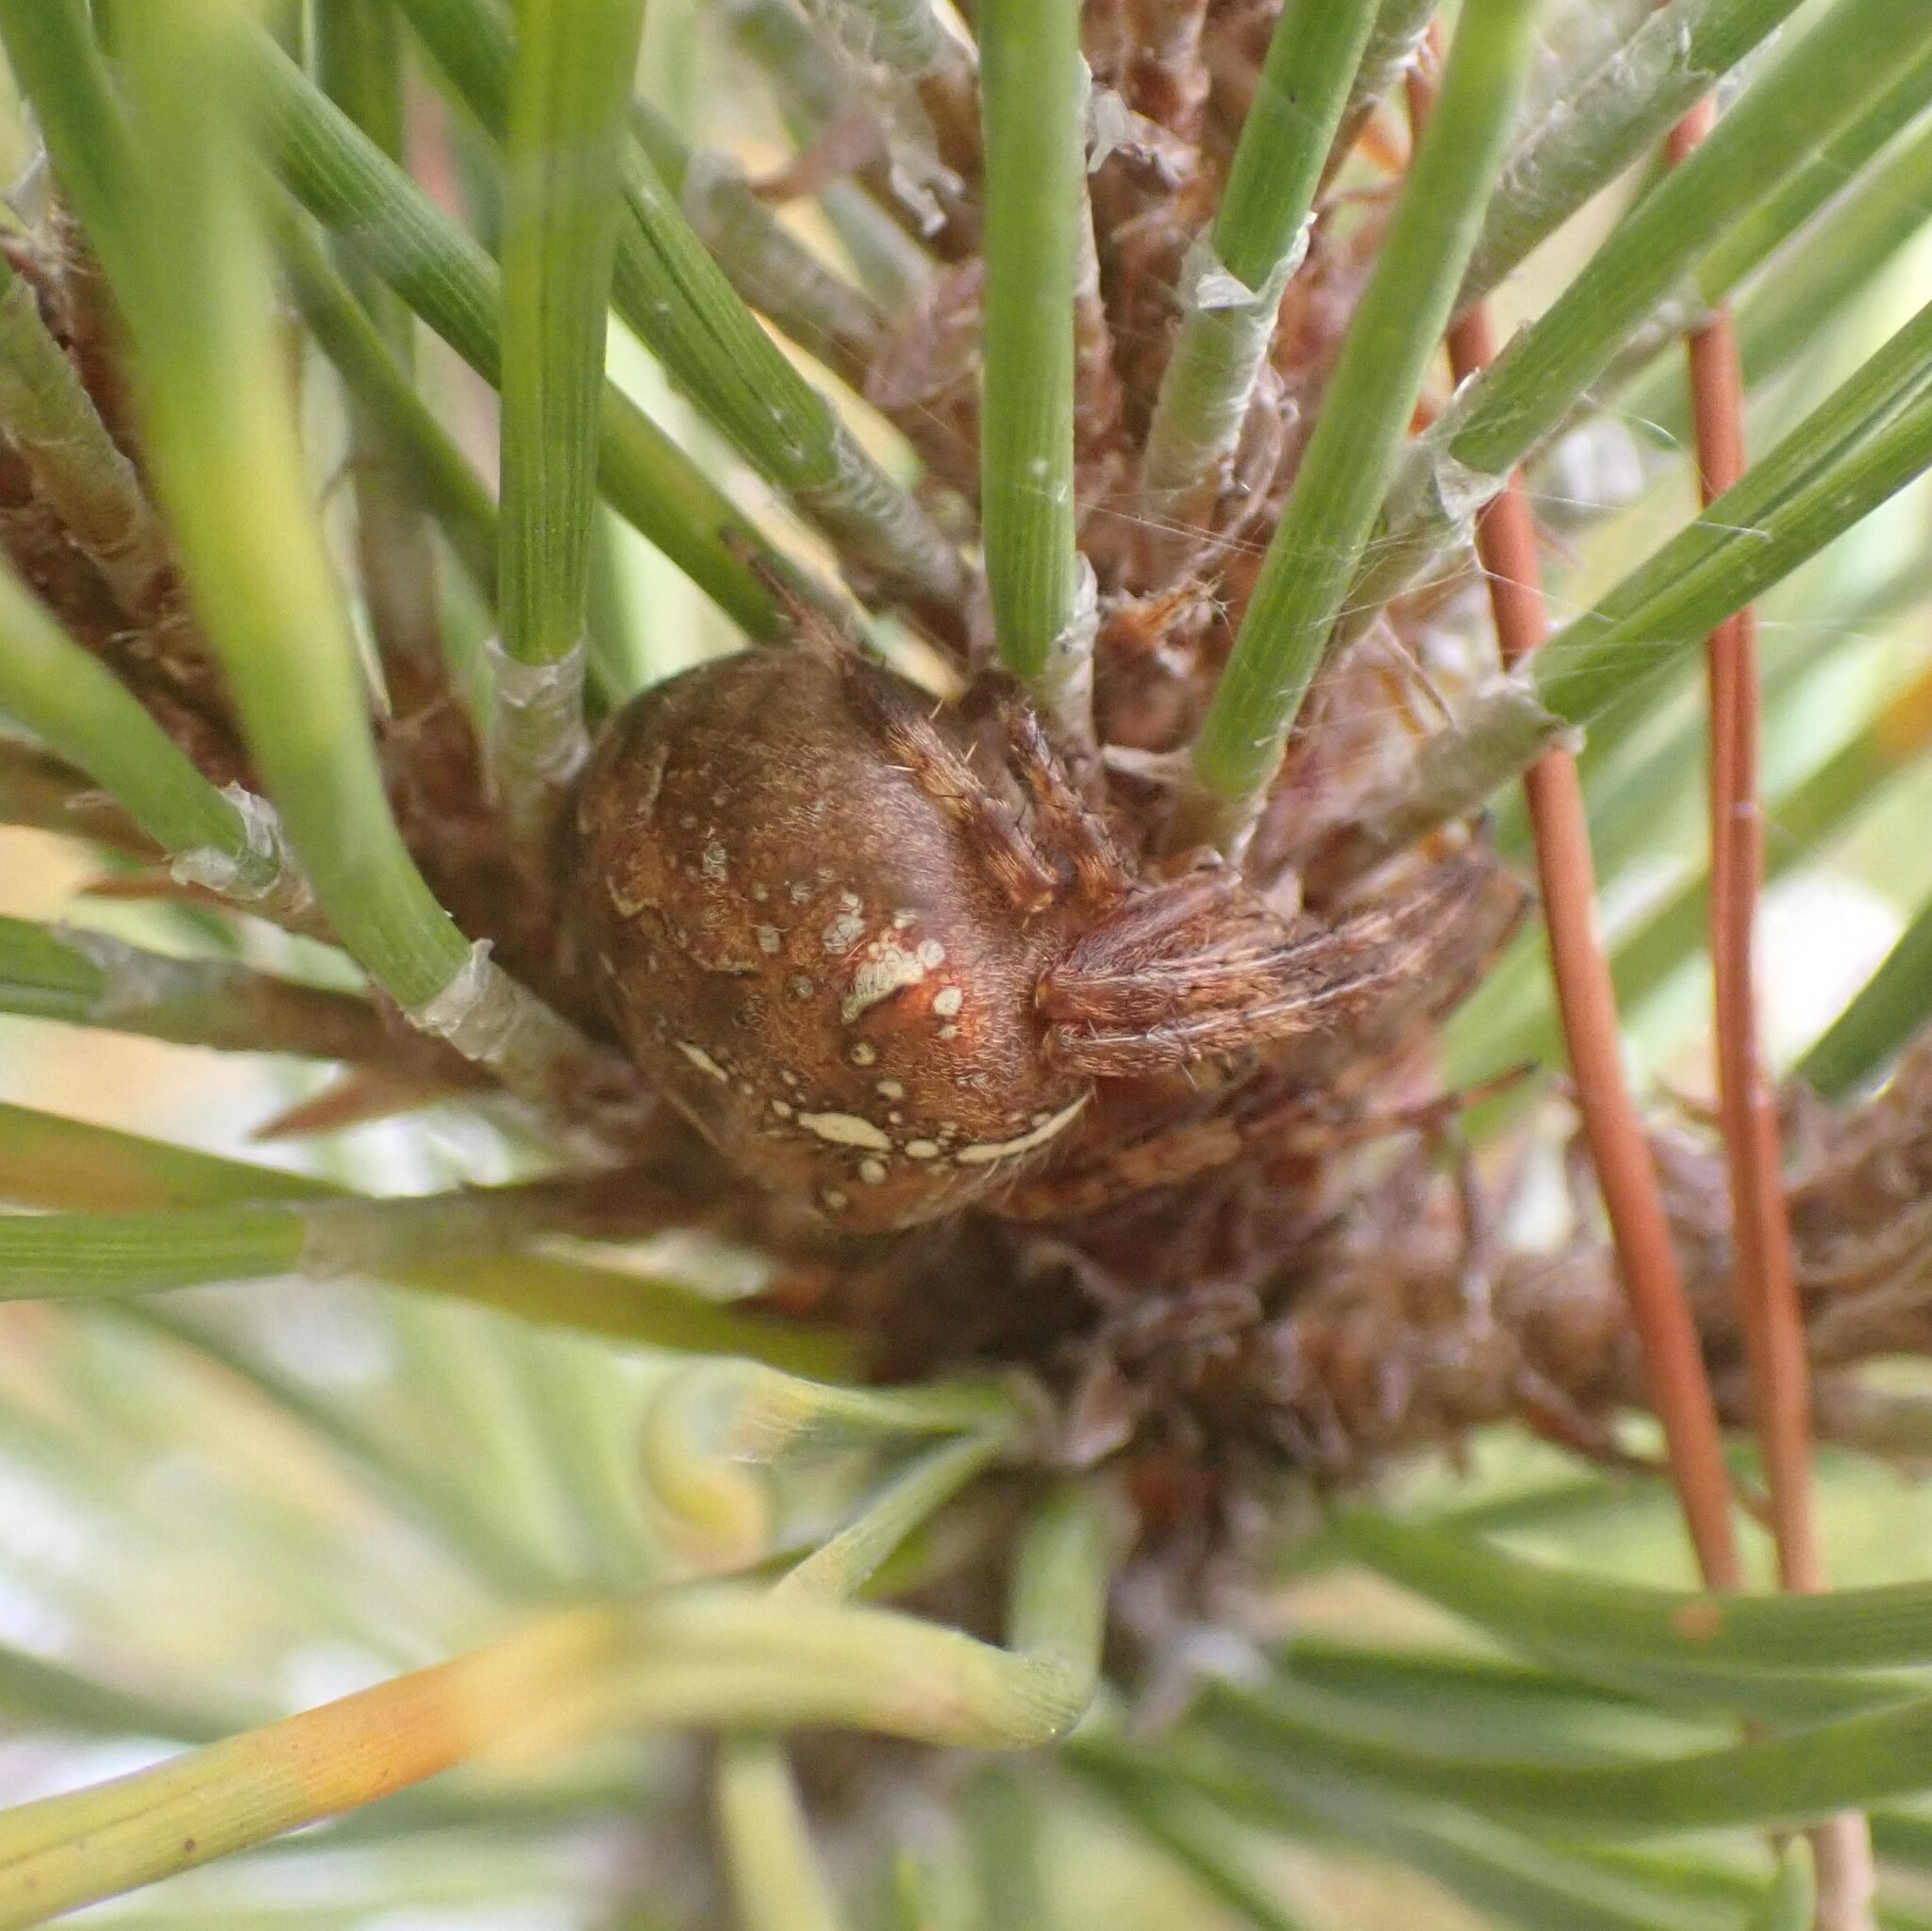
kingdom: Animalia
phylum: Arthropoda
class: Arachnida
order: Araneae
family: Araneidae
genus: Araneus
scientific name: Araneus diadematus
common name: Cross orbweaver
